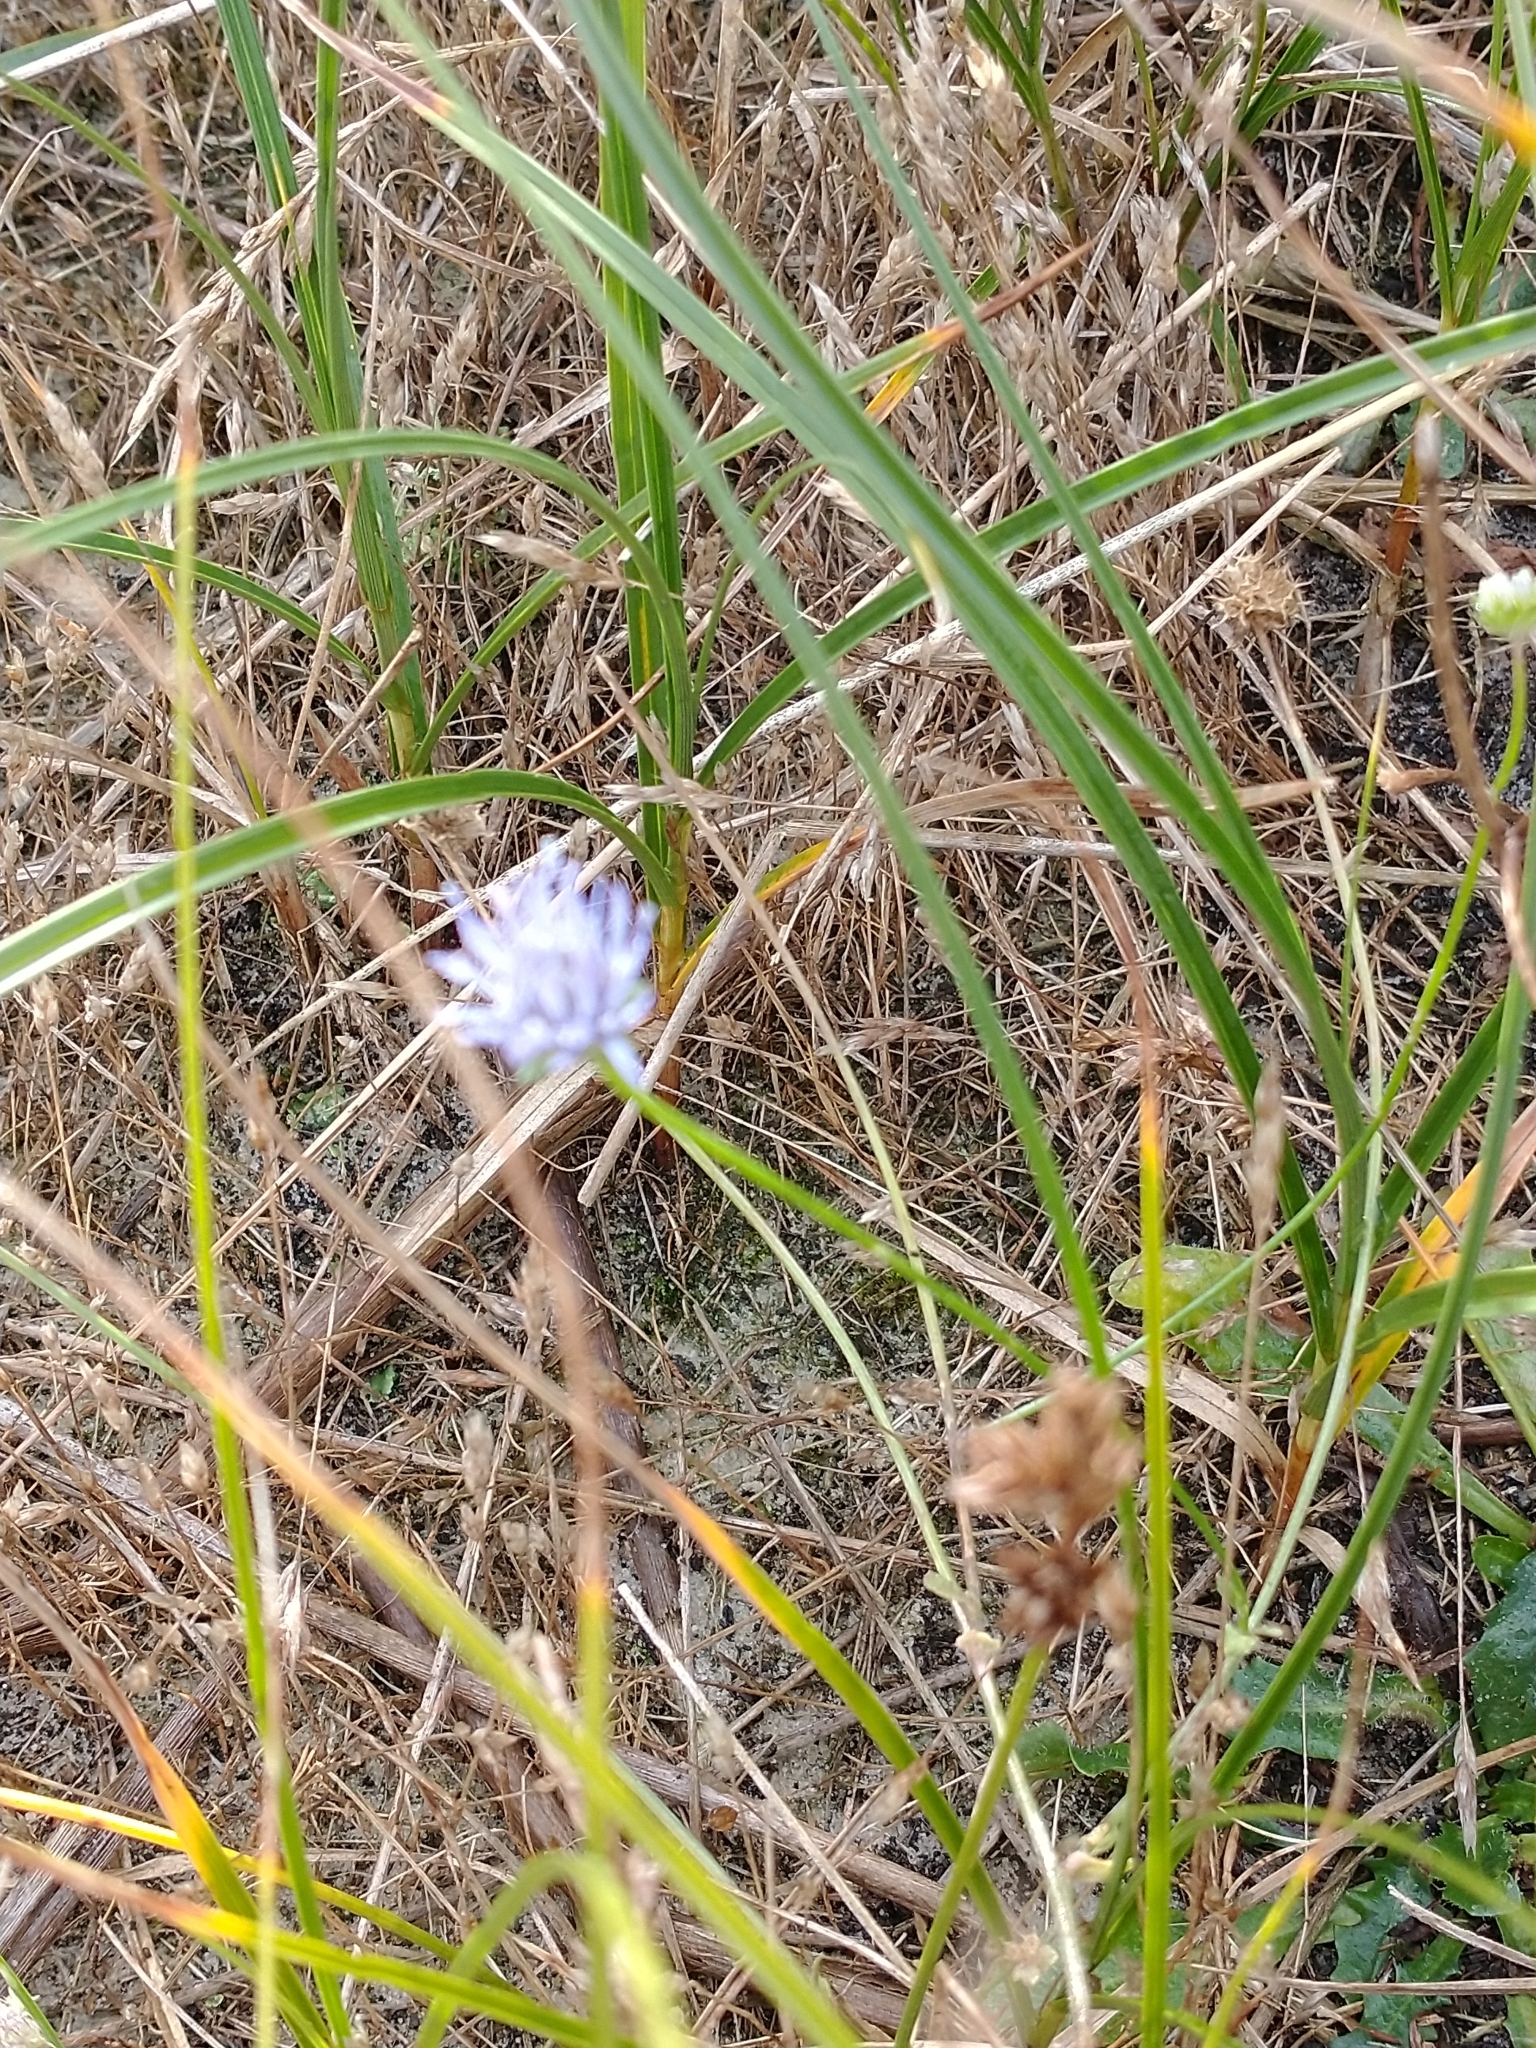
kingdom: Plantae
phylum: Tracheophyta
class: Magnoliopsida
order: Asterales
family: Campanulaceae
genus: Jasione
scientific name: Jasione montana
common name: Sheep's-bit
